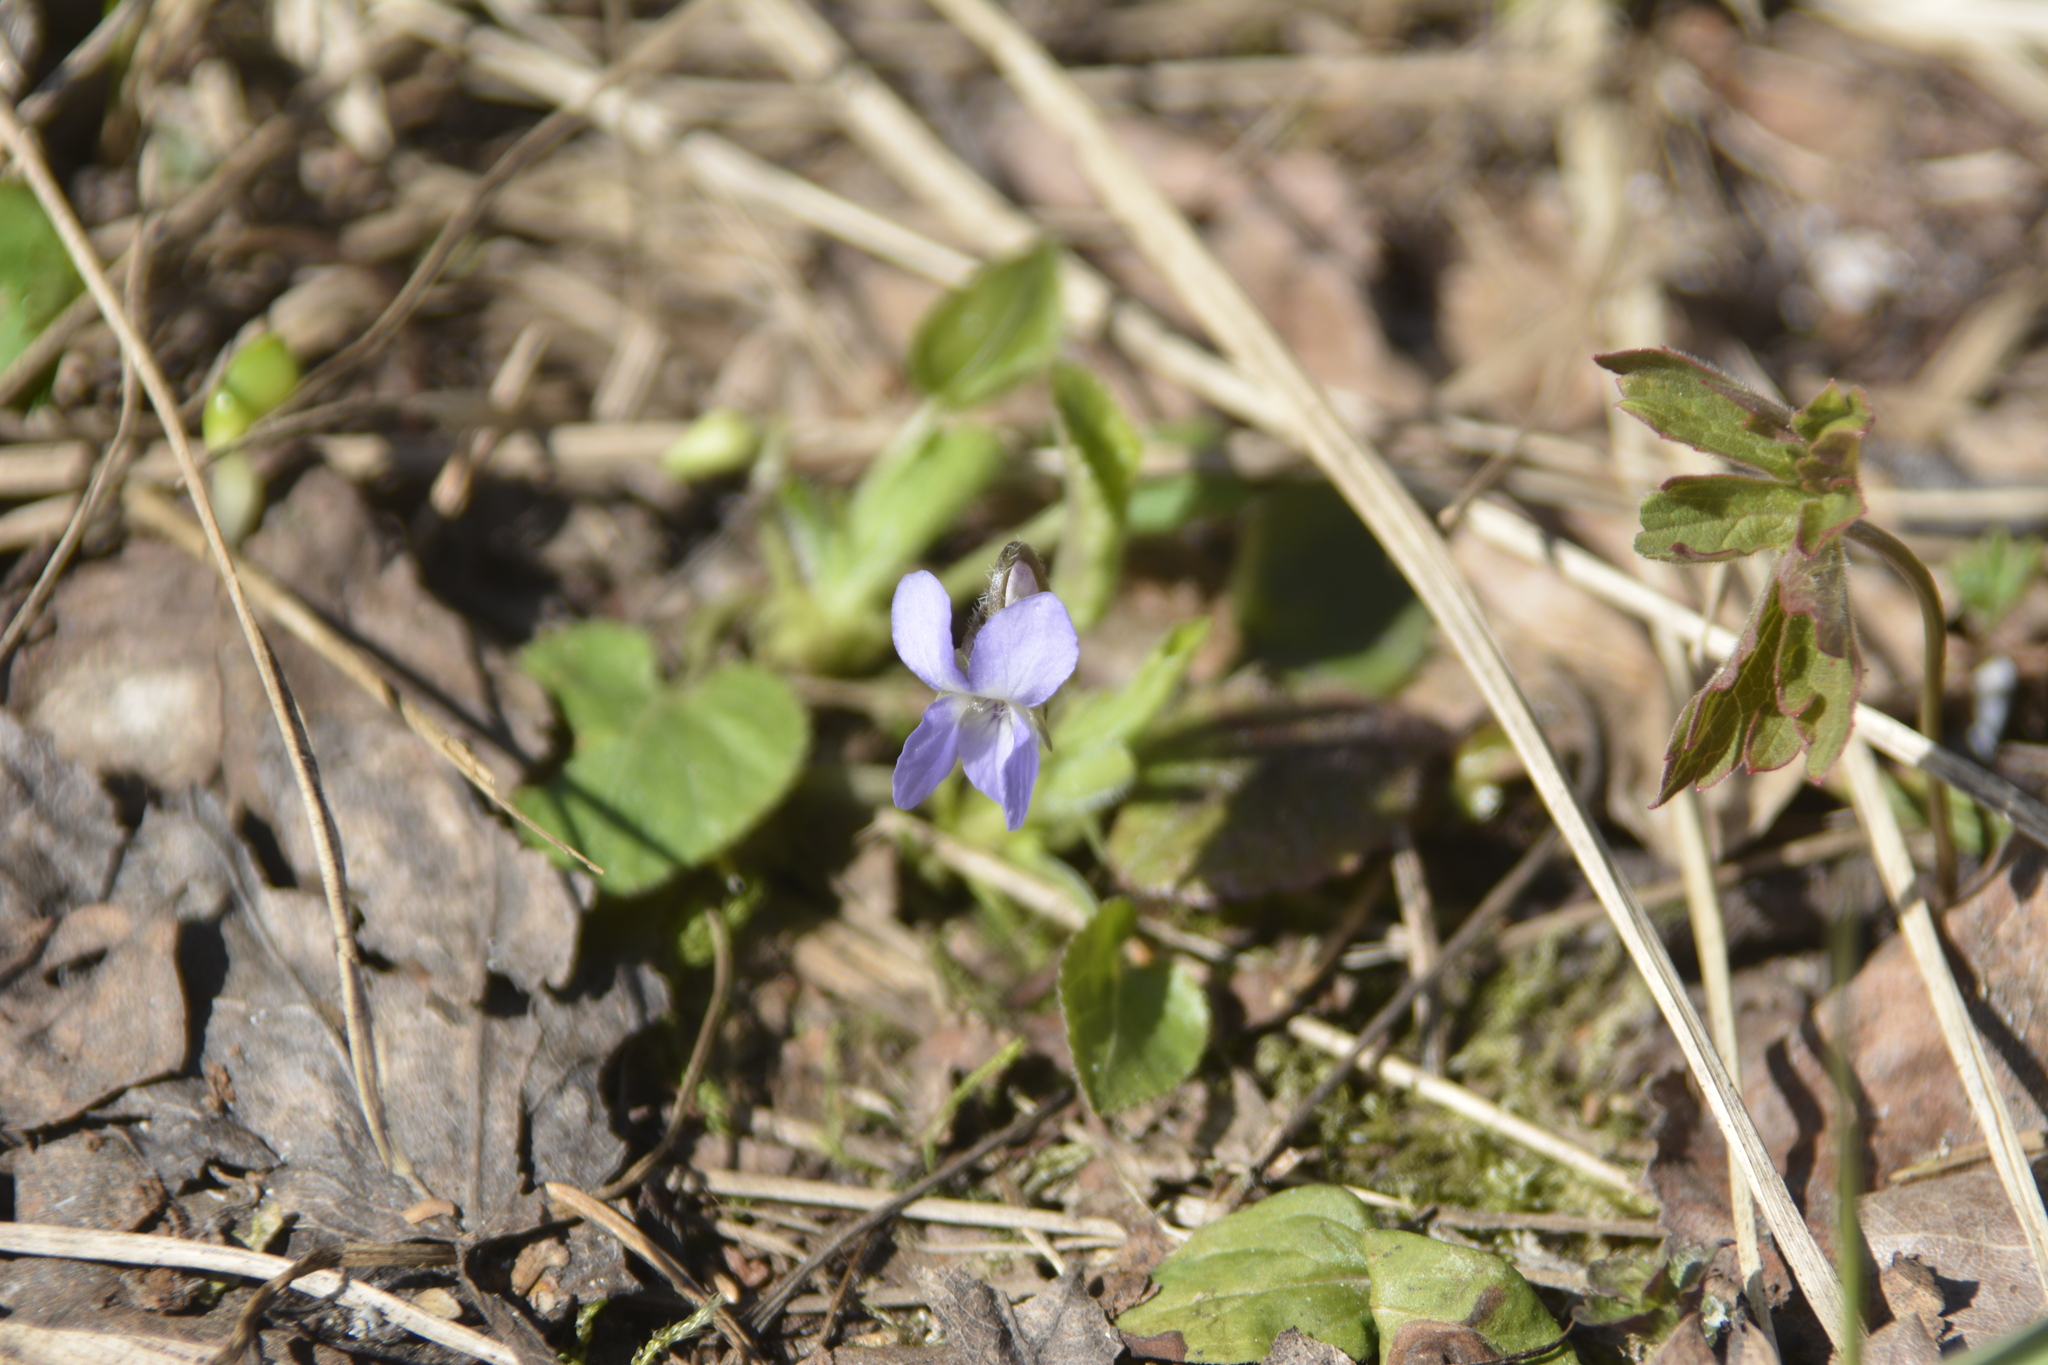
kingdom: Plantae
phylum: Tracheophyta
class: Magnoliopsida
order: Malpighiales
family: Violaceae
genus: Viola
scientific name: Viola collina
